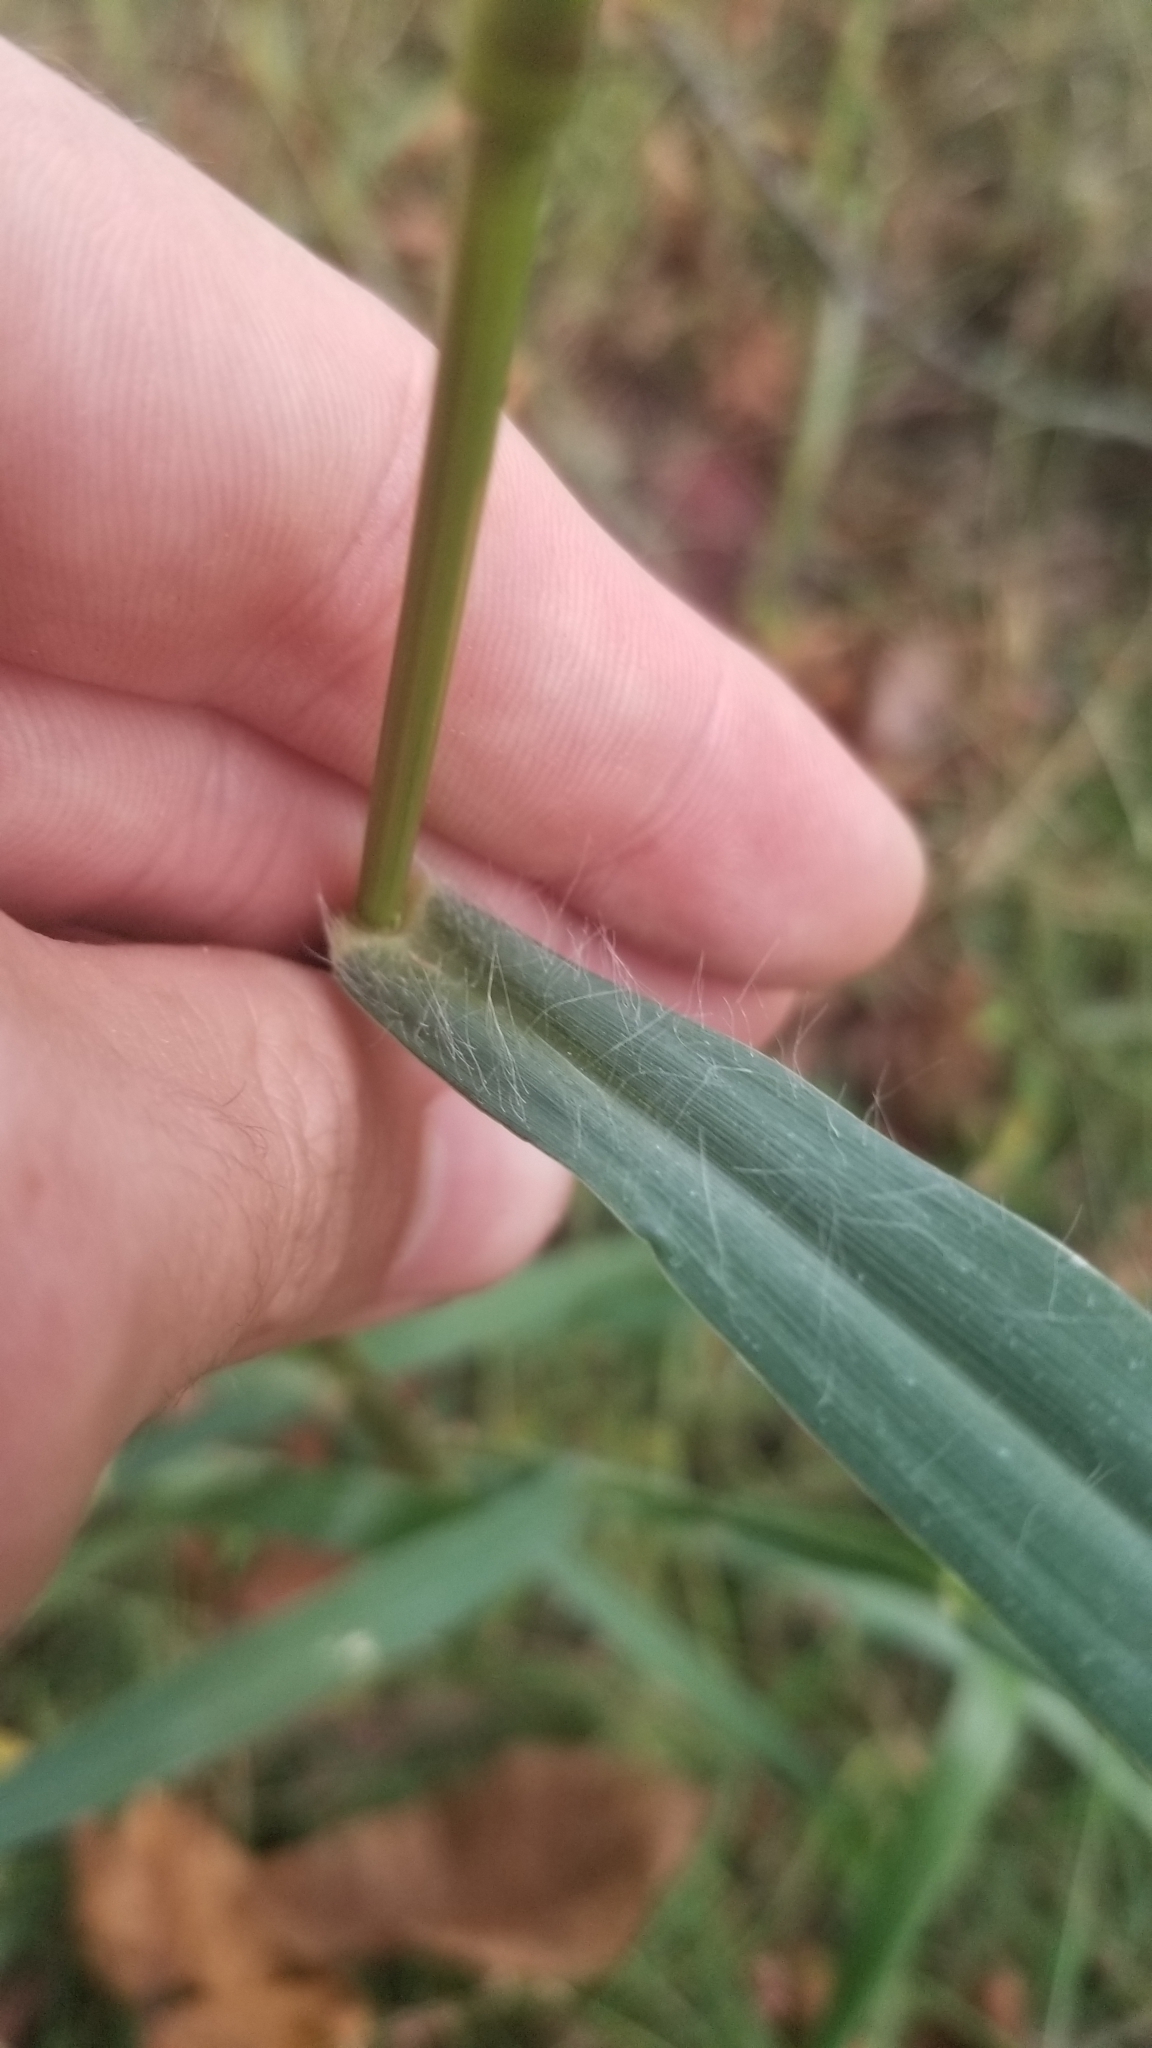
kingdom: Plantae
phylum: Tracheophyta
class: Liliopsida
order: Poales
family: Poaceae
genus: Setaria
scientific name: Setaria pumila
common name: Yellow bristle-grass
